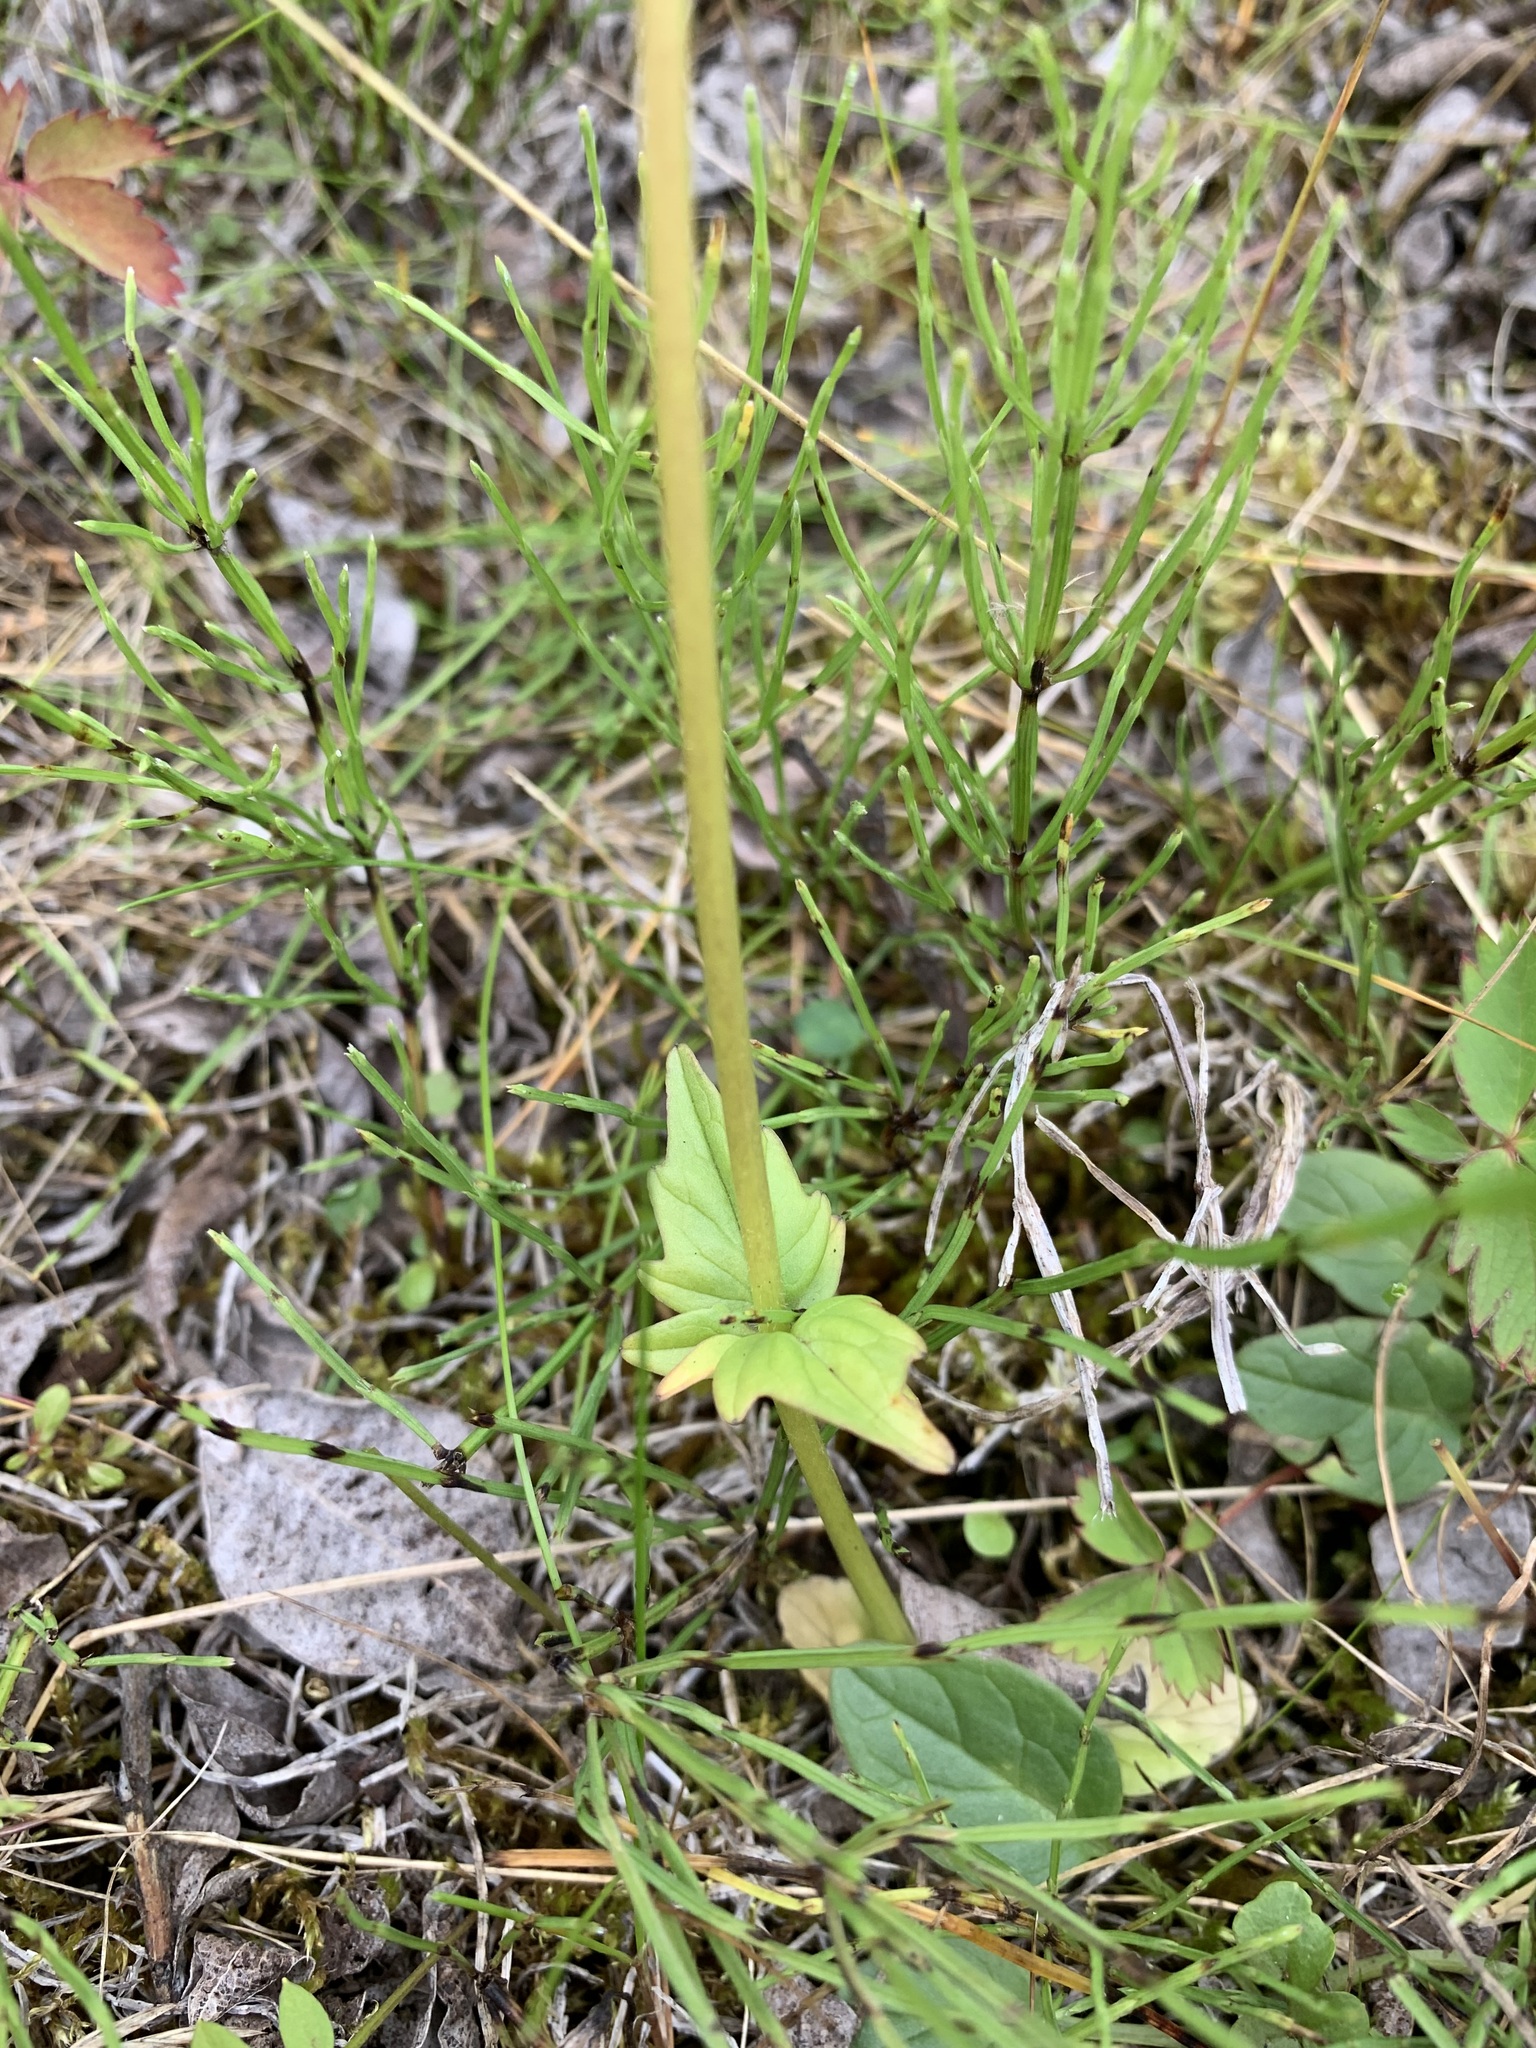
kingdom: Plantae
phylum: Tracheophyta
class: Magnoliopsida
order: Dipsacales
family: Caprifoliaceae
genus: Valeriana
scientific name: Valeriana capitata
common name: Capitate valerian
